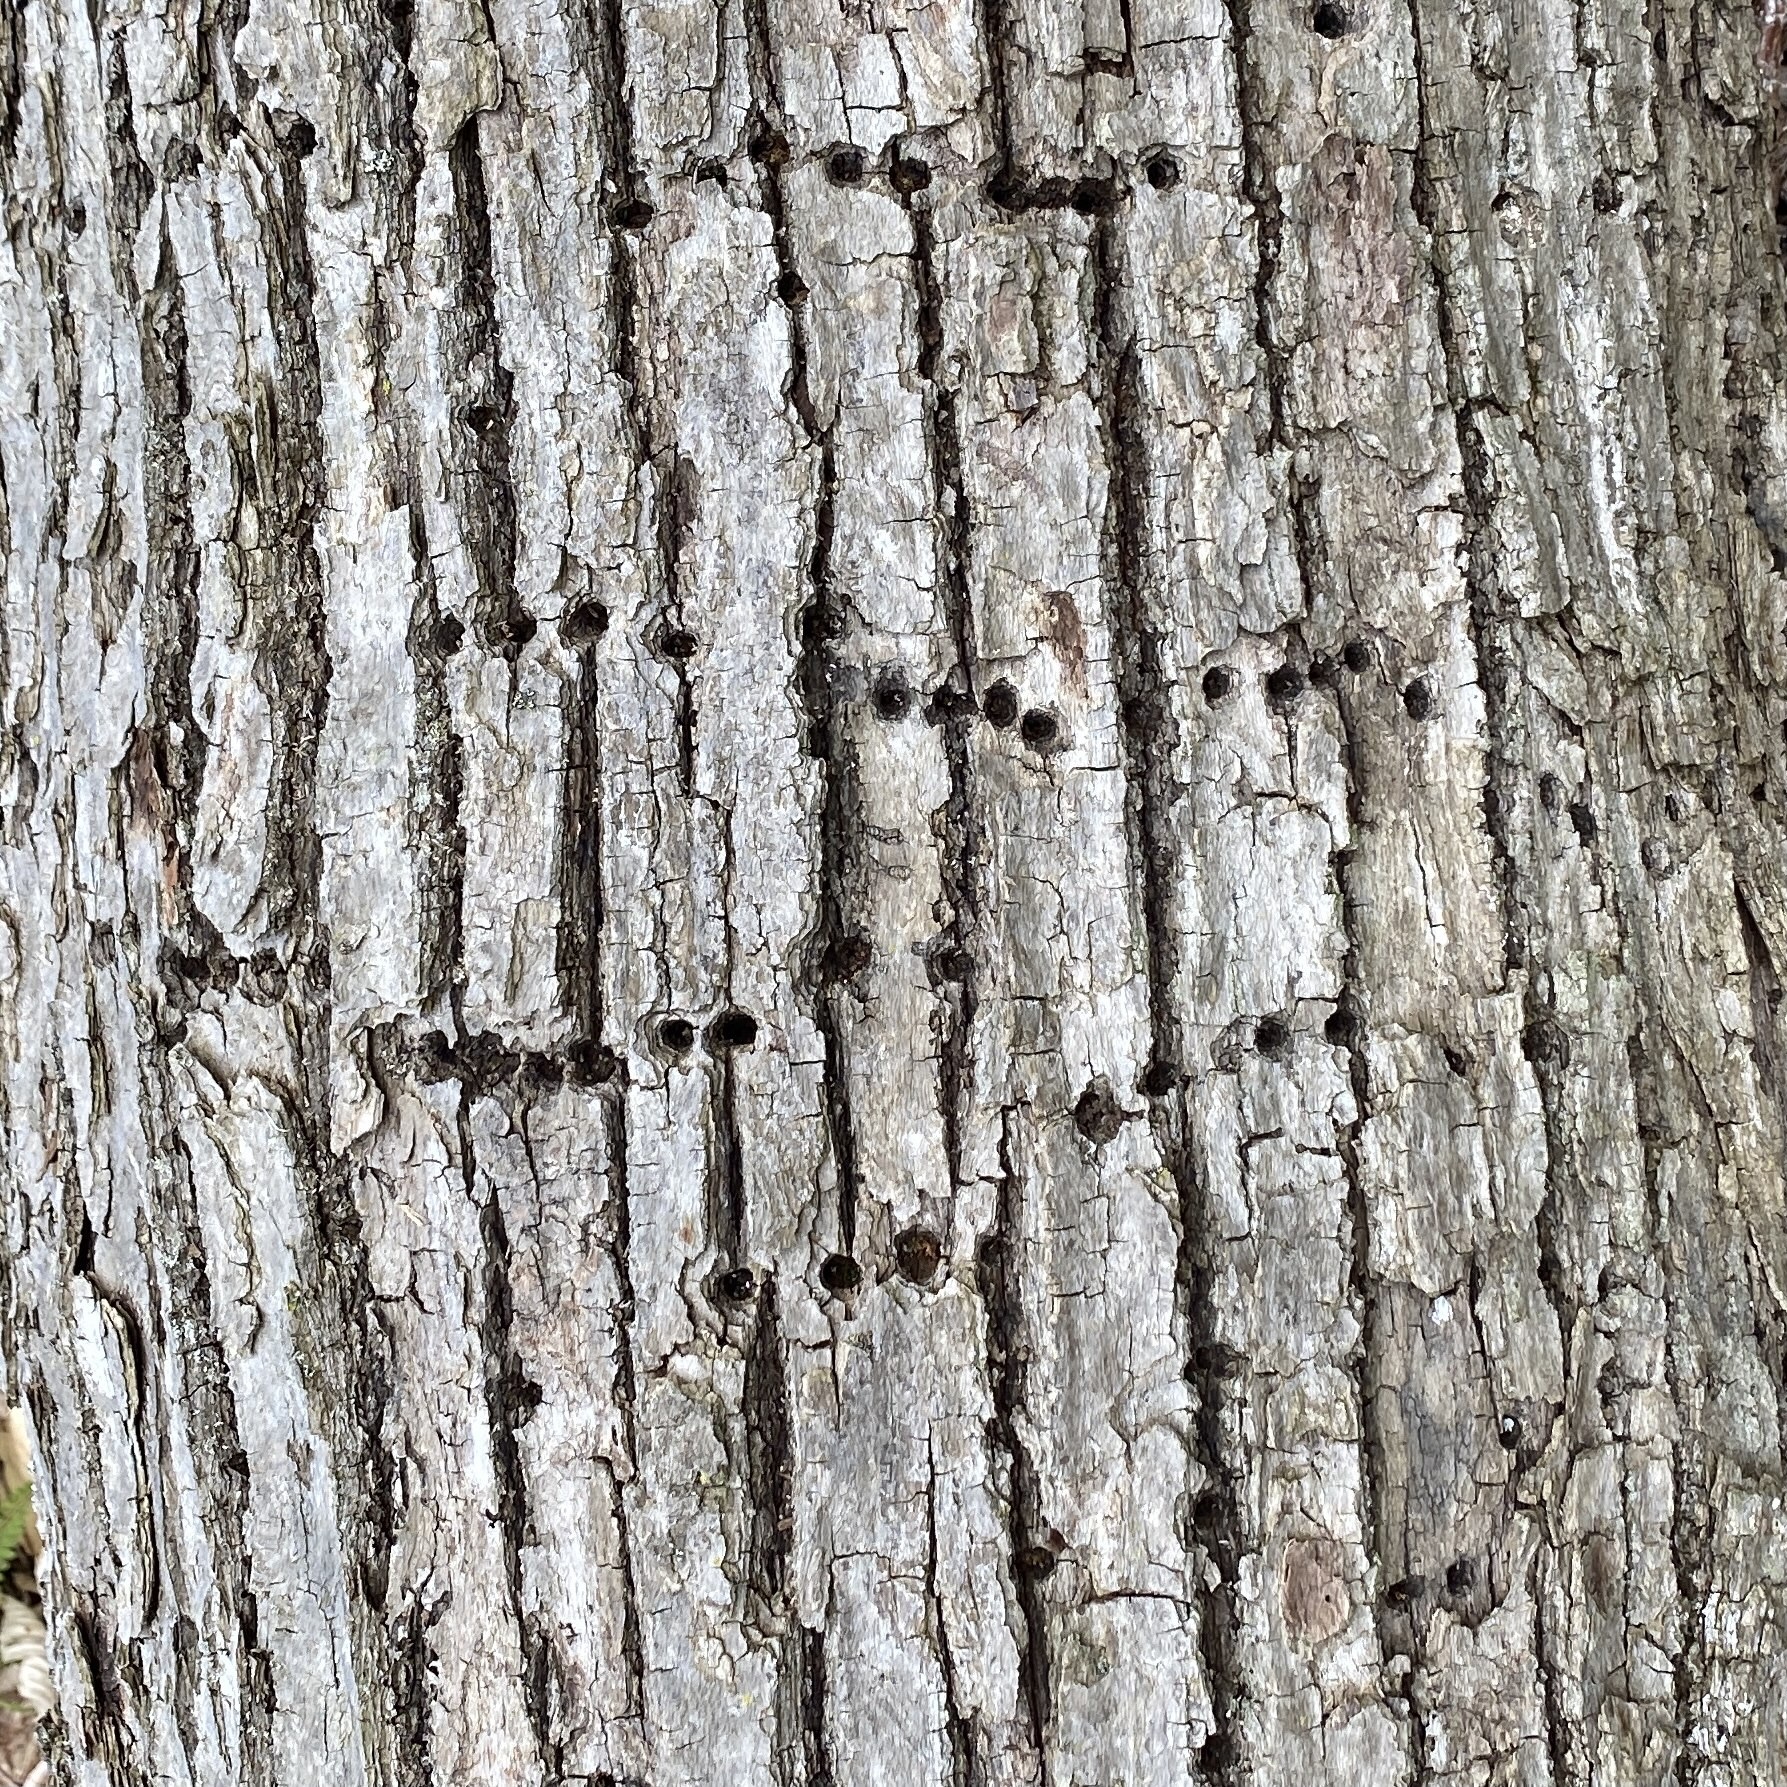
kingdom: Animalia
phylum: Chordata
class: Aves
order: Piciformes
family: Picidae
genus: Sphyrapicus
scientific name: Sphyrapicus varius
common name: Yellow-bellied sapsucker
